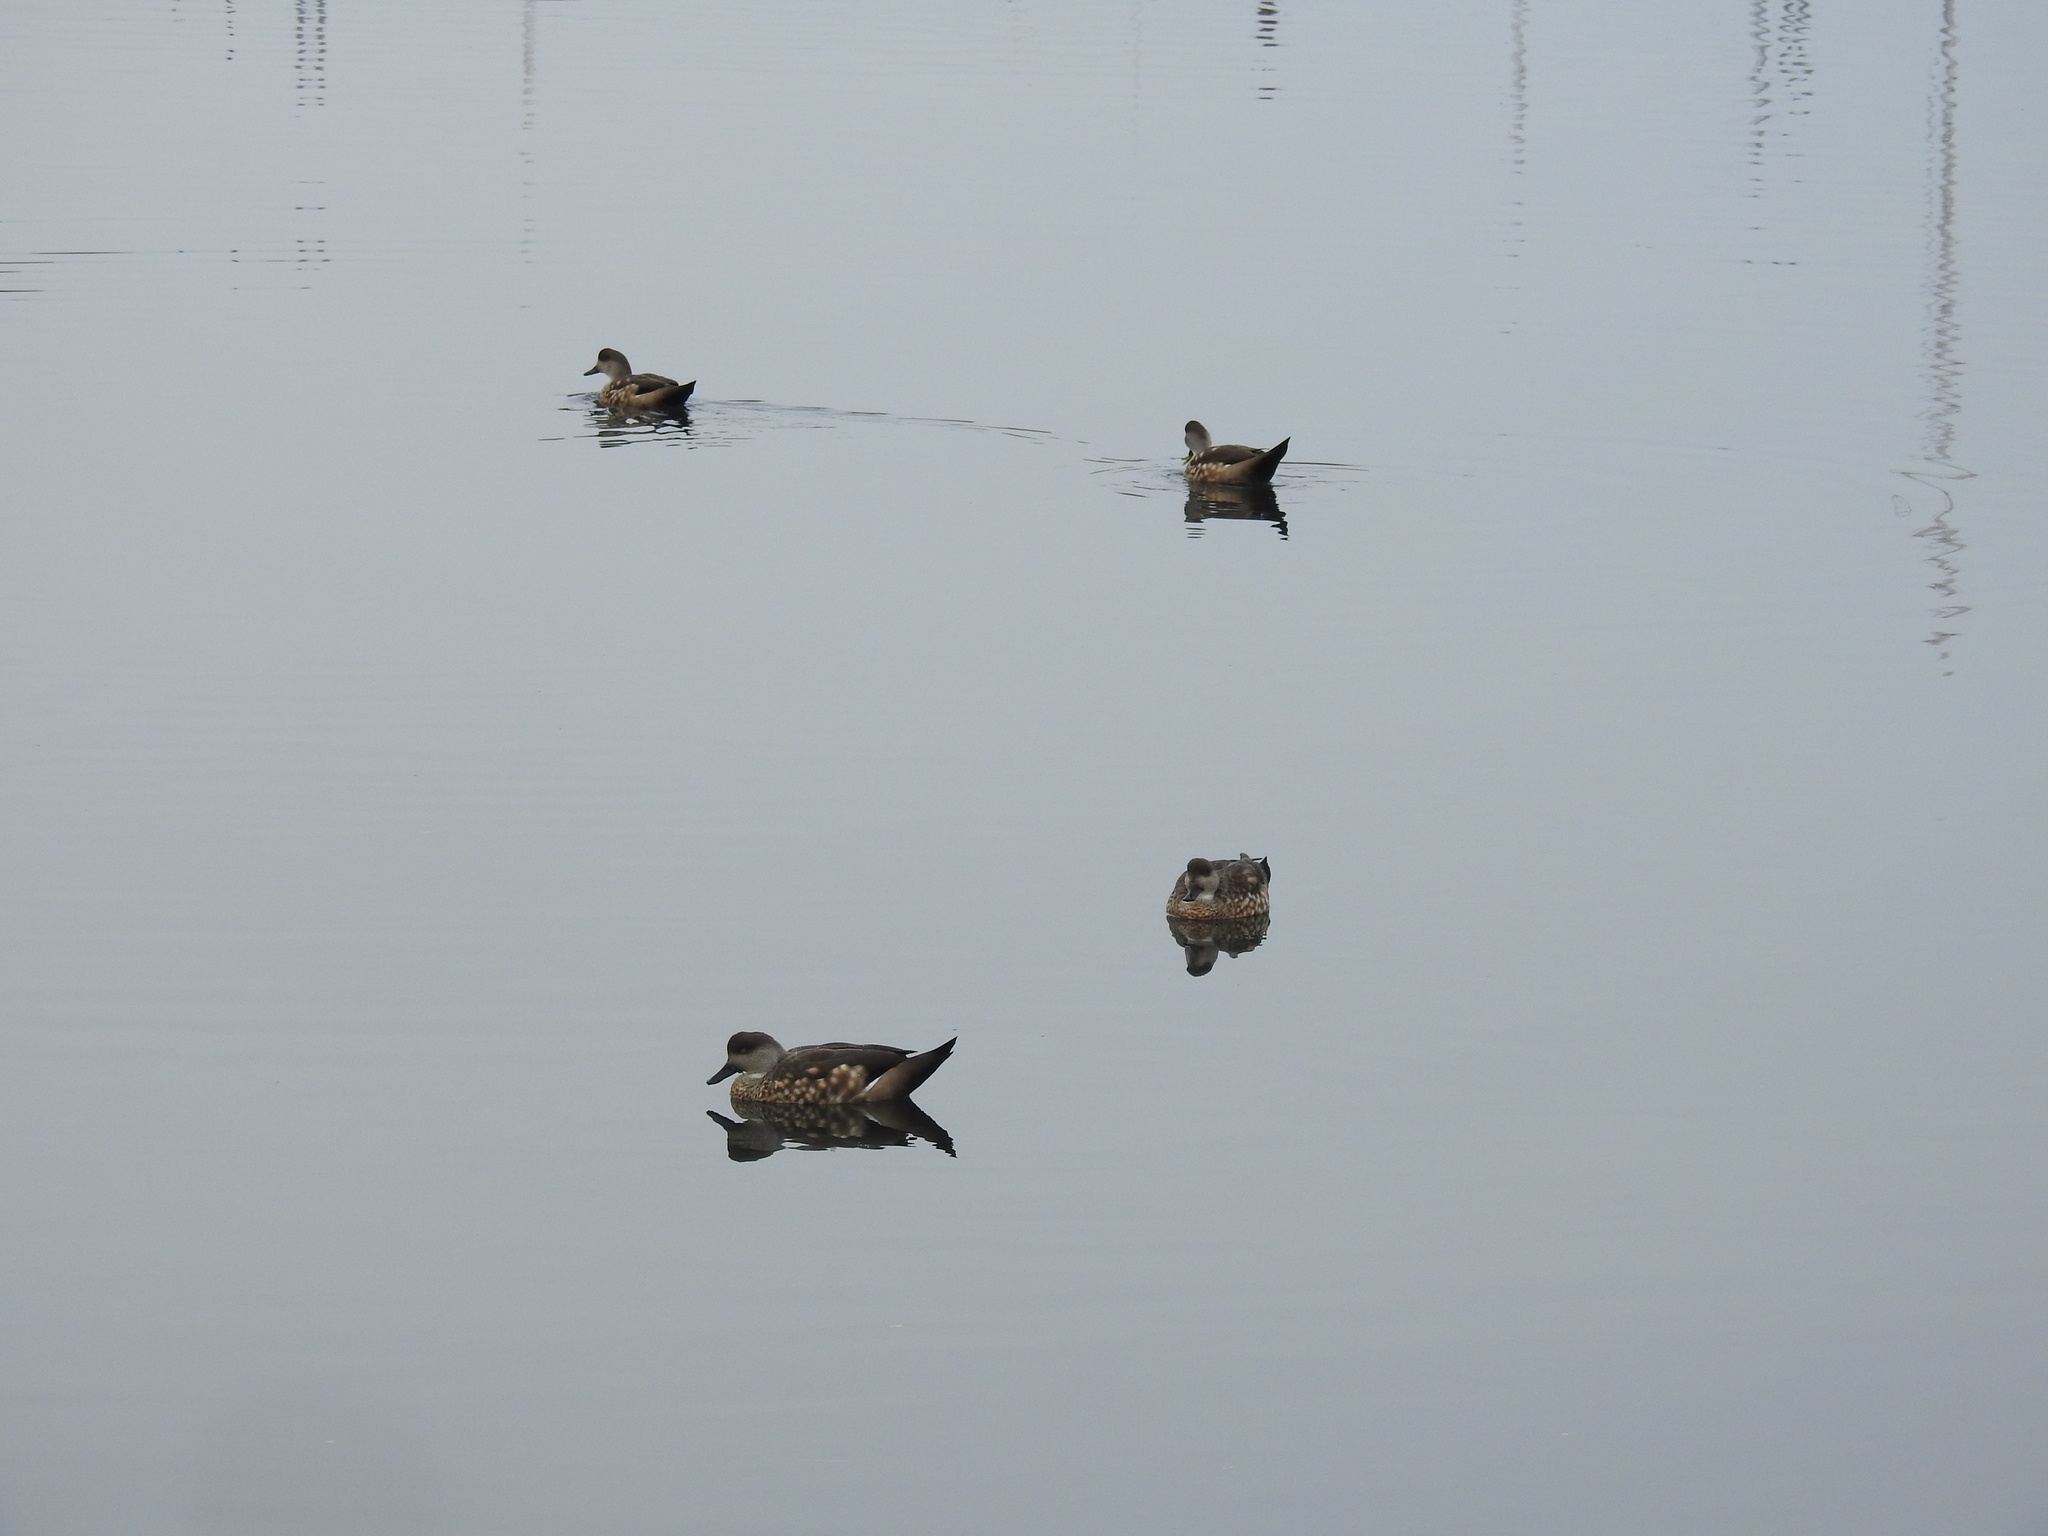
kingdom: Animalia
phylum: Chordata
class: Aves
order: Anseriformes
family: Anatidae
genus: Lophonetta
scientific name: Lophonetta specularioides
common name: Crested duck
